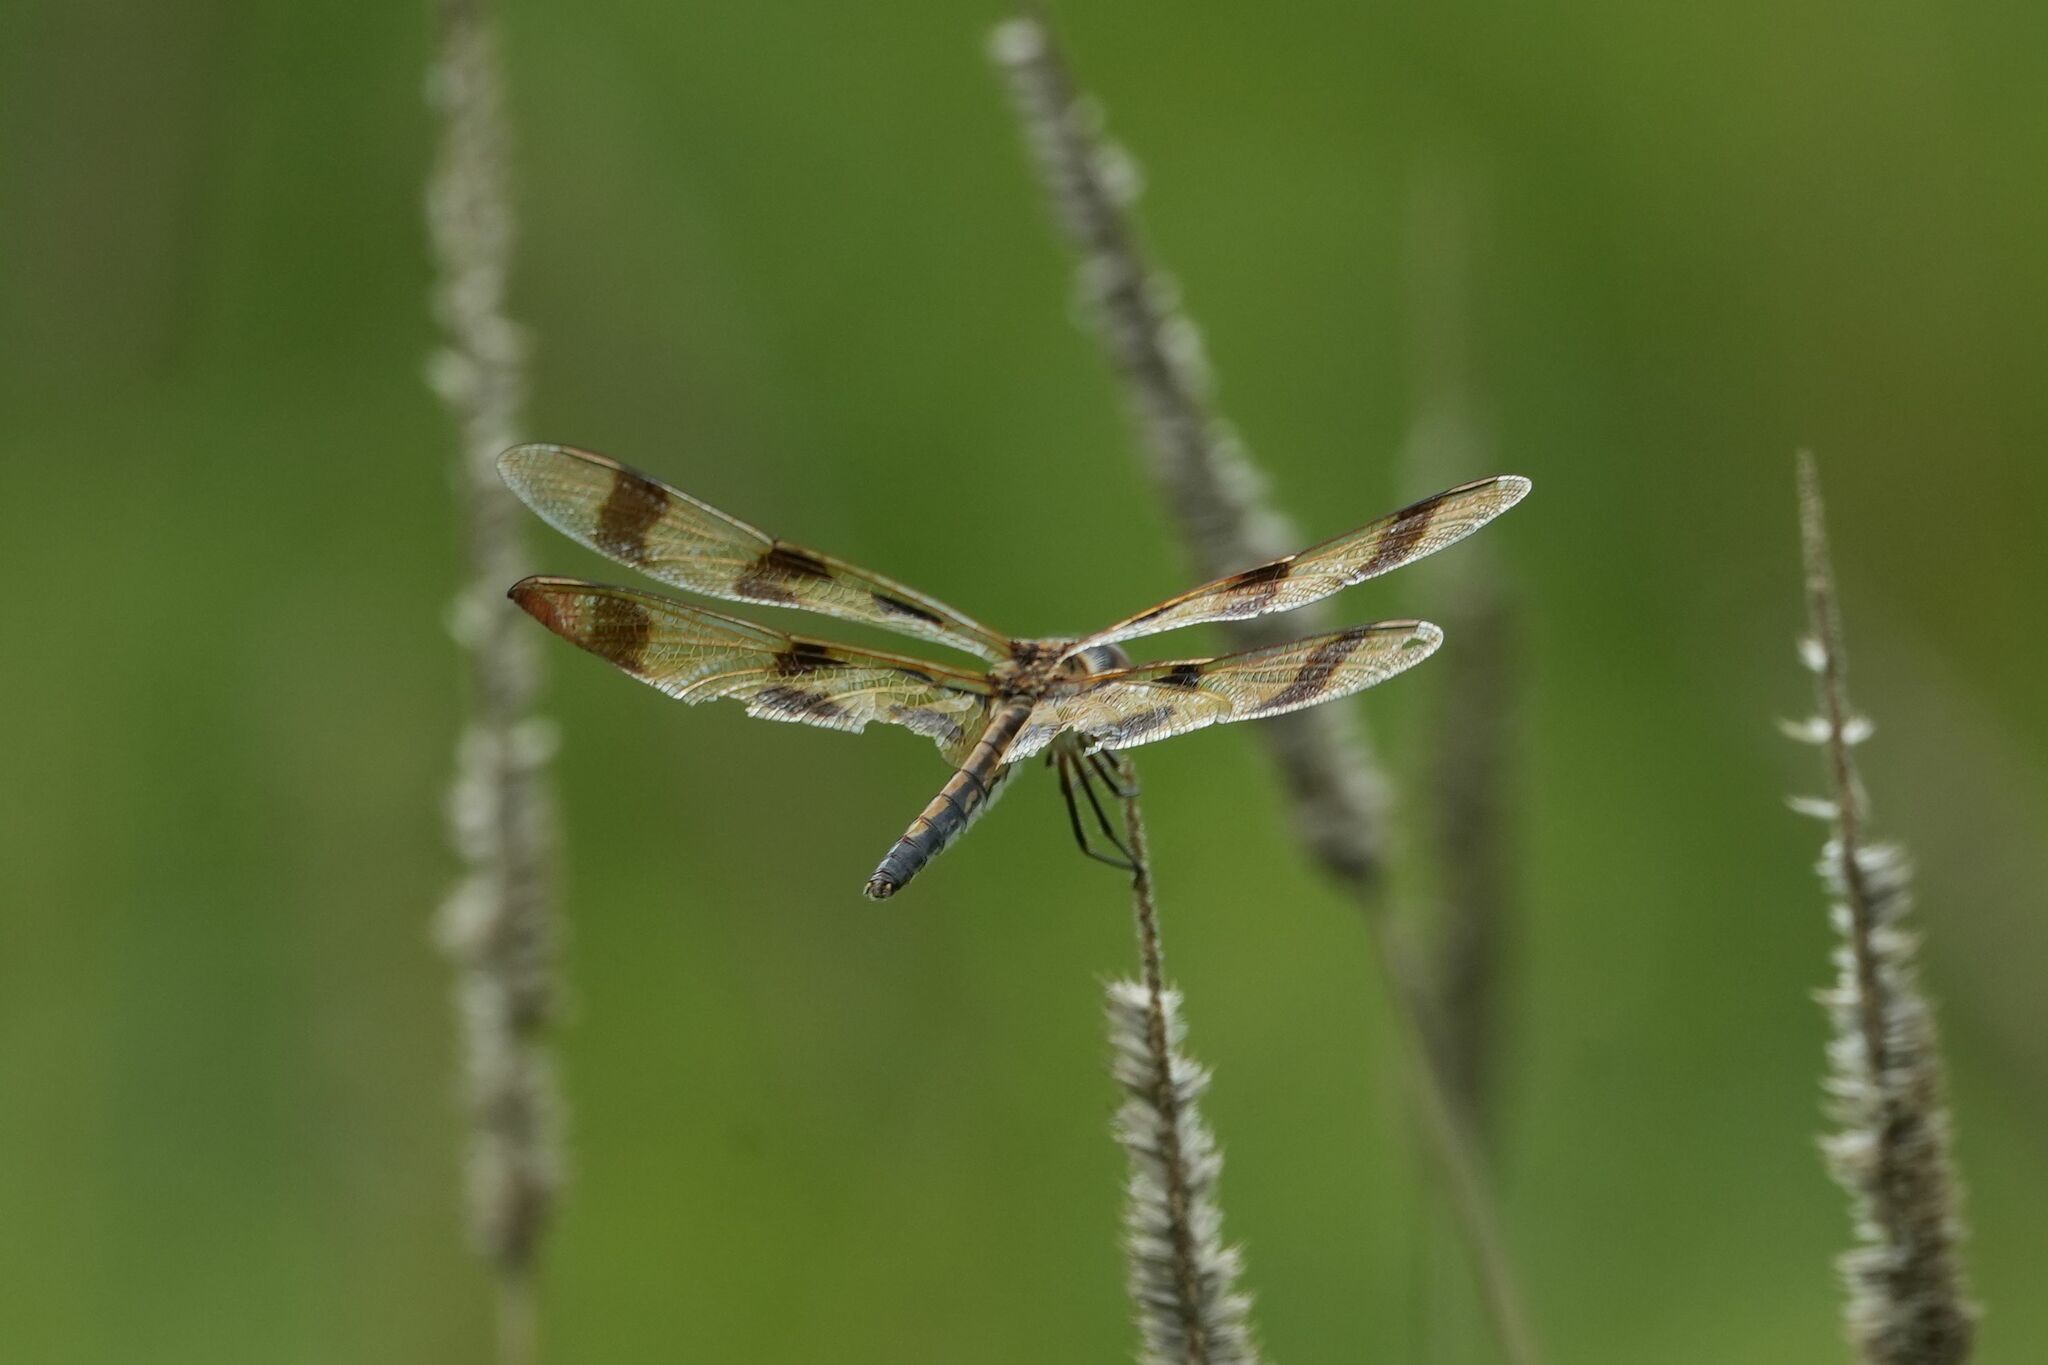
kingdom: Animalia
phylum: Arthropoda
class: Insecta
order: Odonata
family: Libellulidae
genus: Celithemis
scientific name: Celithemis eponina
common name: Halloween pennant
